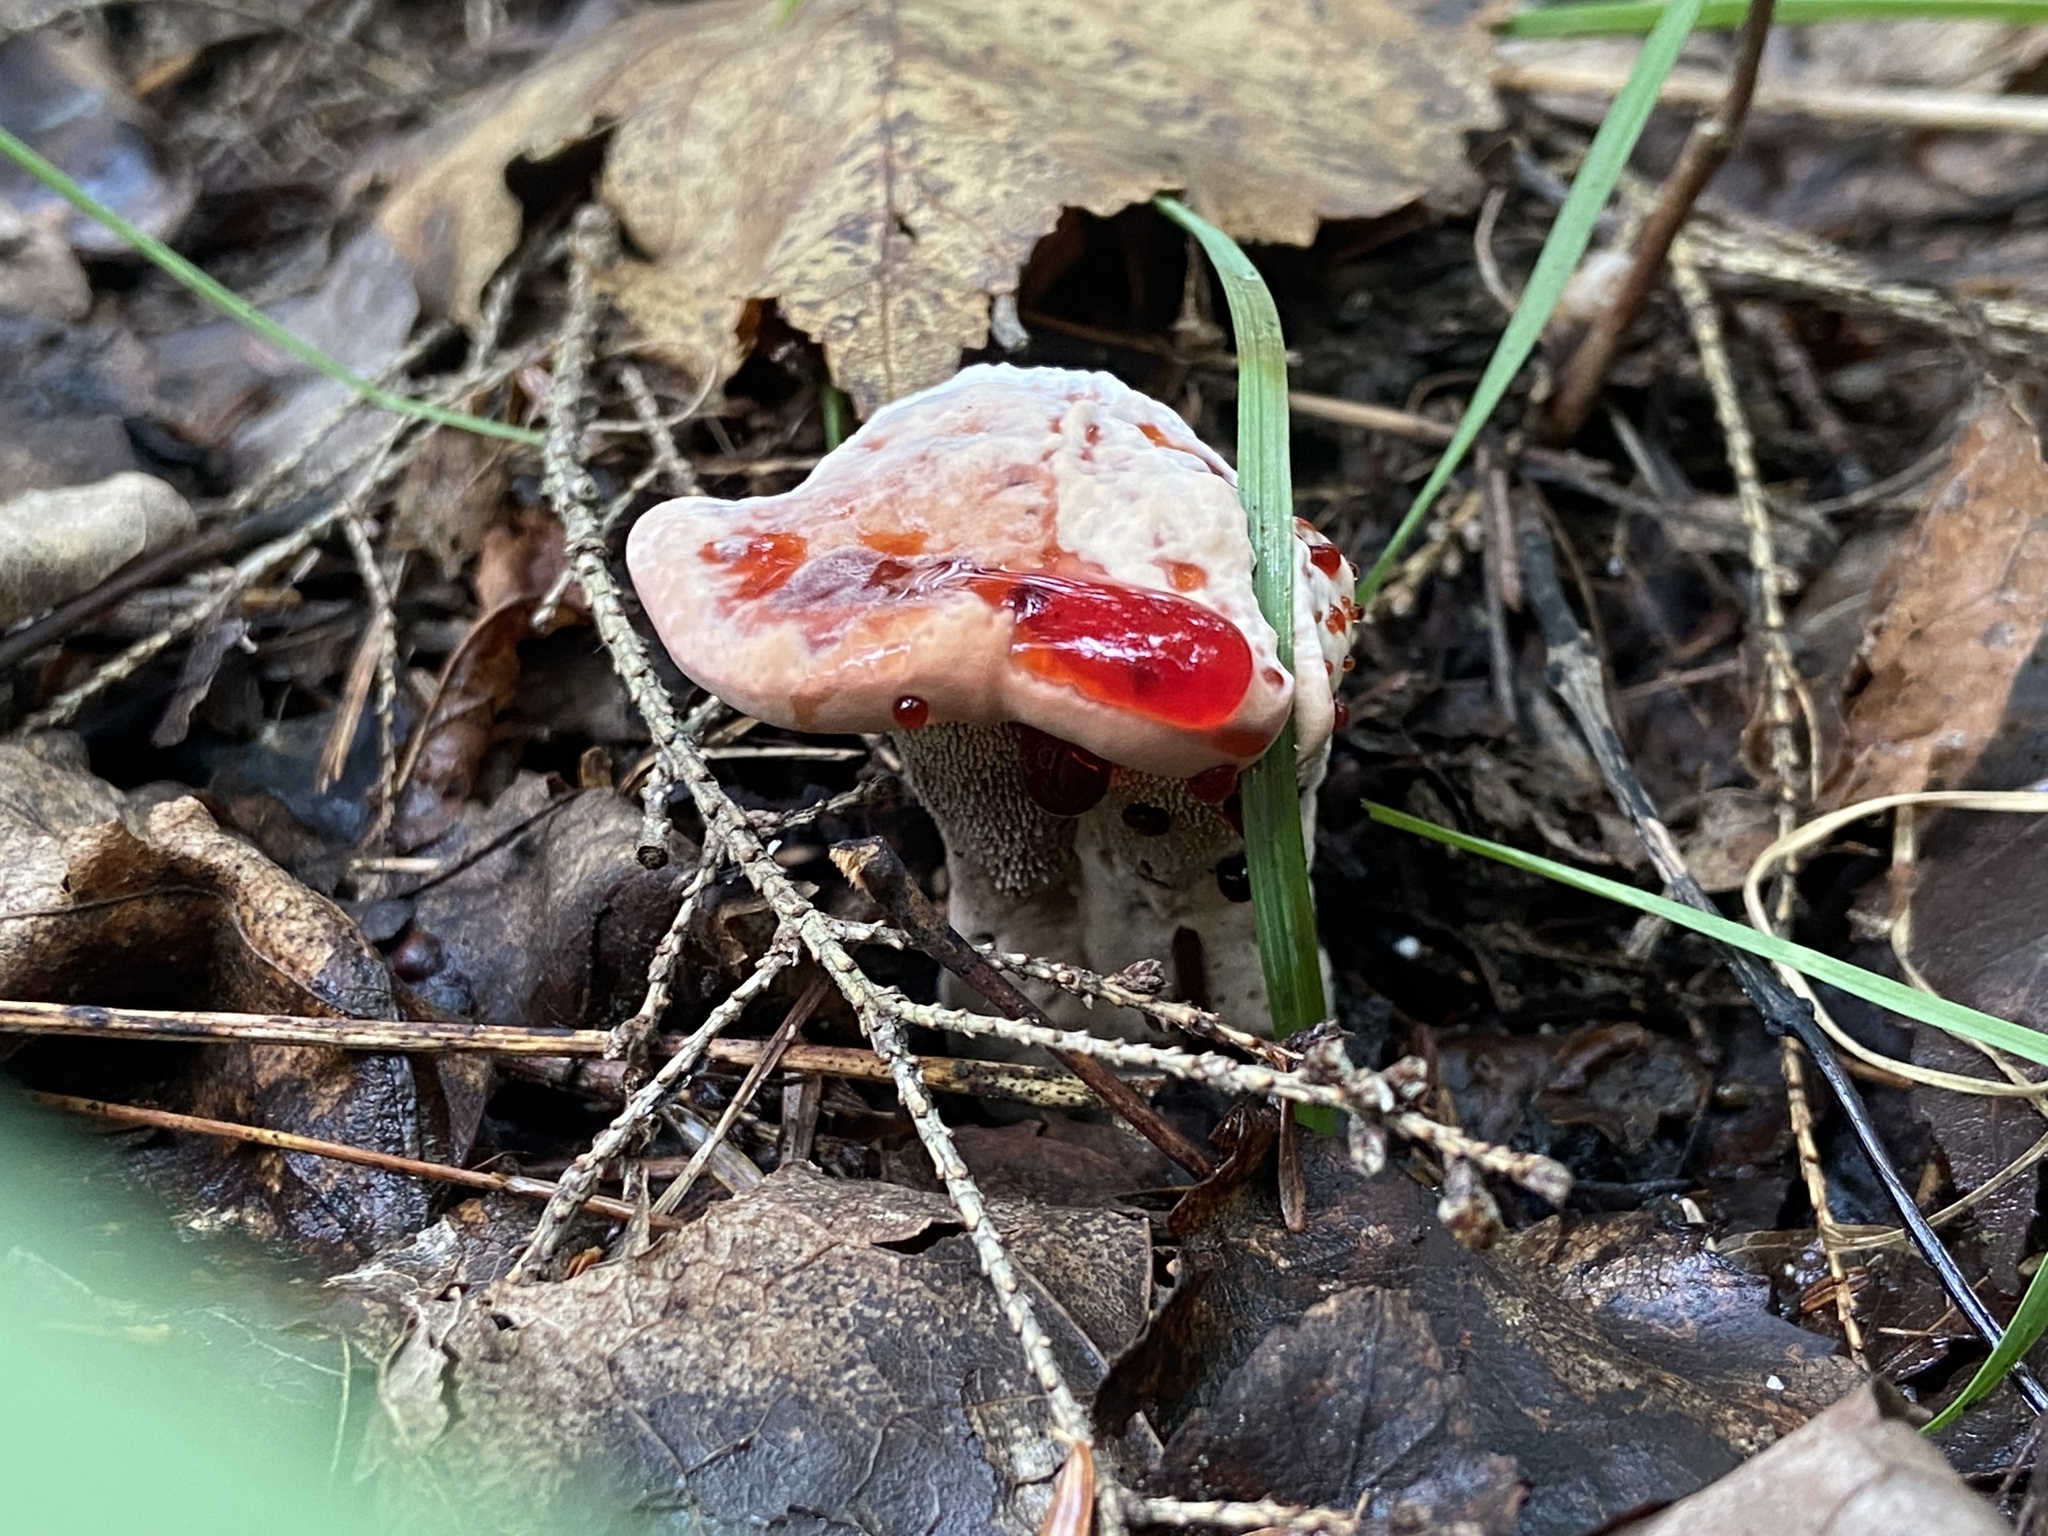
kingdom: Fungi
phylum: Basidiomycota
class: Agaricomycetes
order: Thelephorales
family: Bankeraceae
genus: Hydnellum
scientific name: Hydnellum peckii
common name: Devil's tooth
